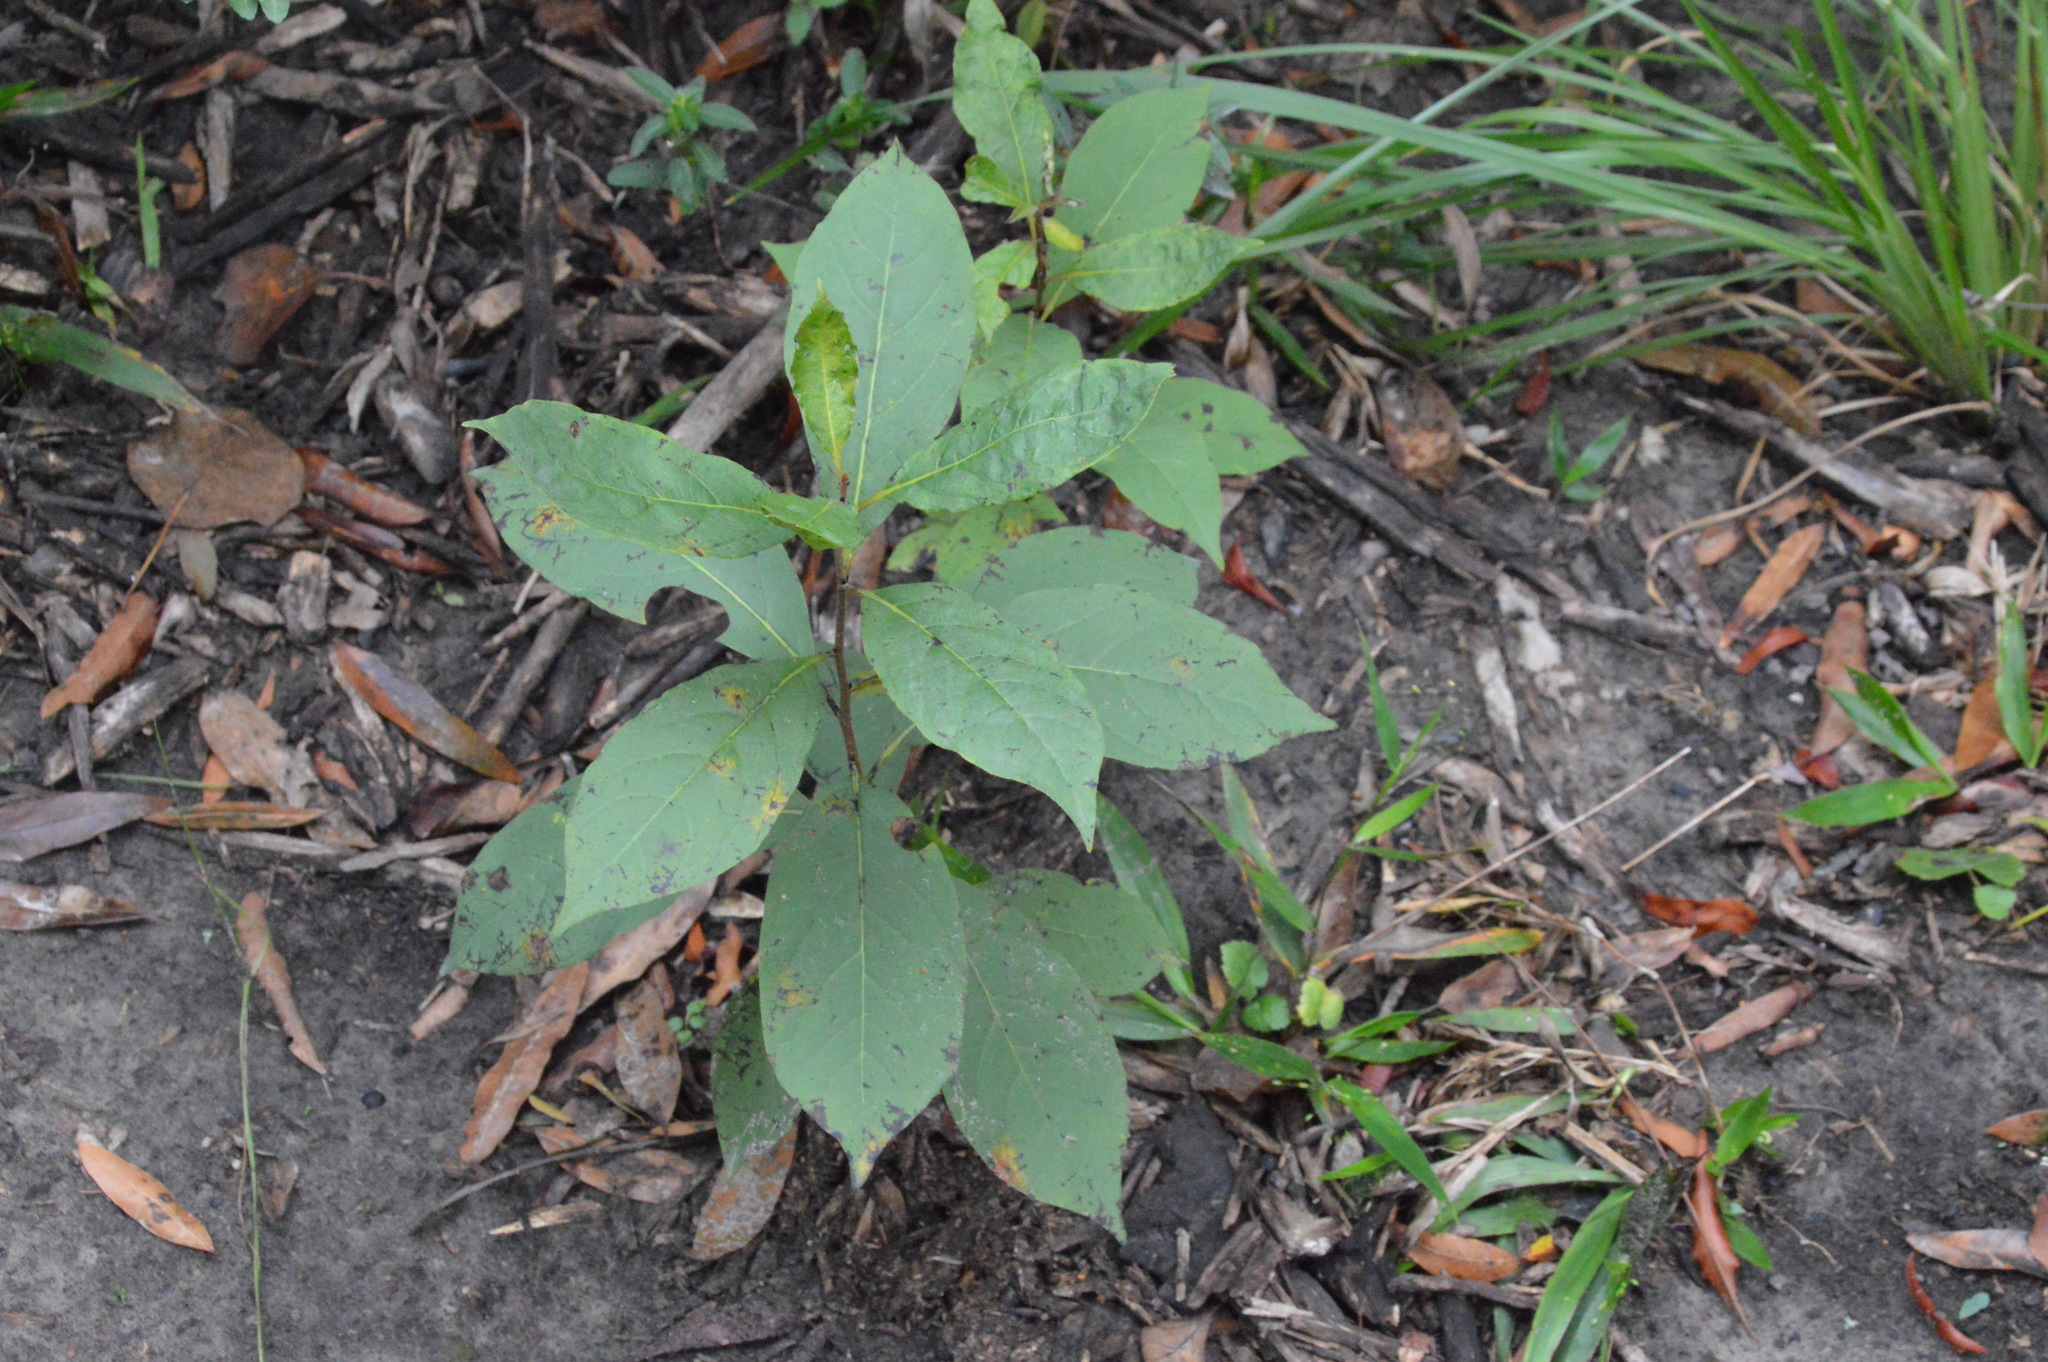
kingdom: Plantae
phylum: Tracheophyta
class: Magnoliopsida
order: Ericales
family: Ebenaceae
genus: Diospyros
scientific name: Diospyros virginiana
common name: Persimmon
